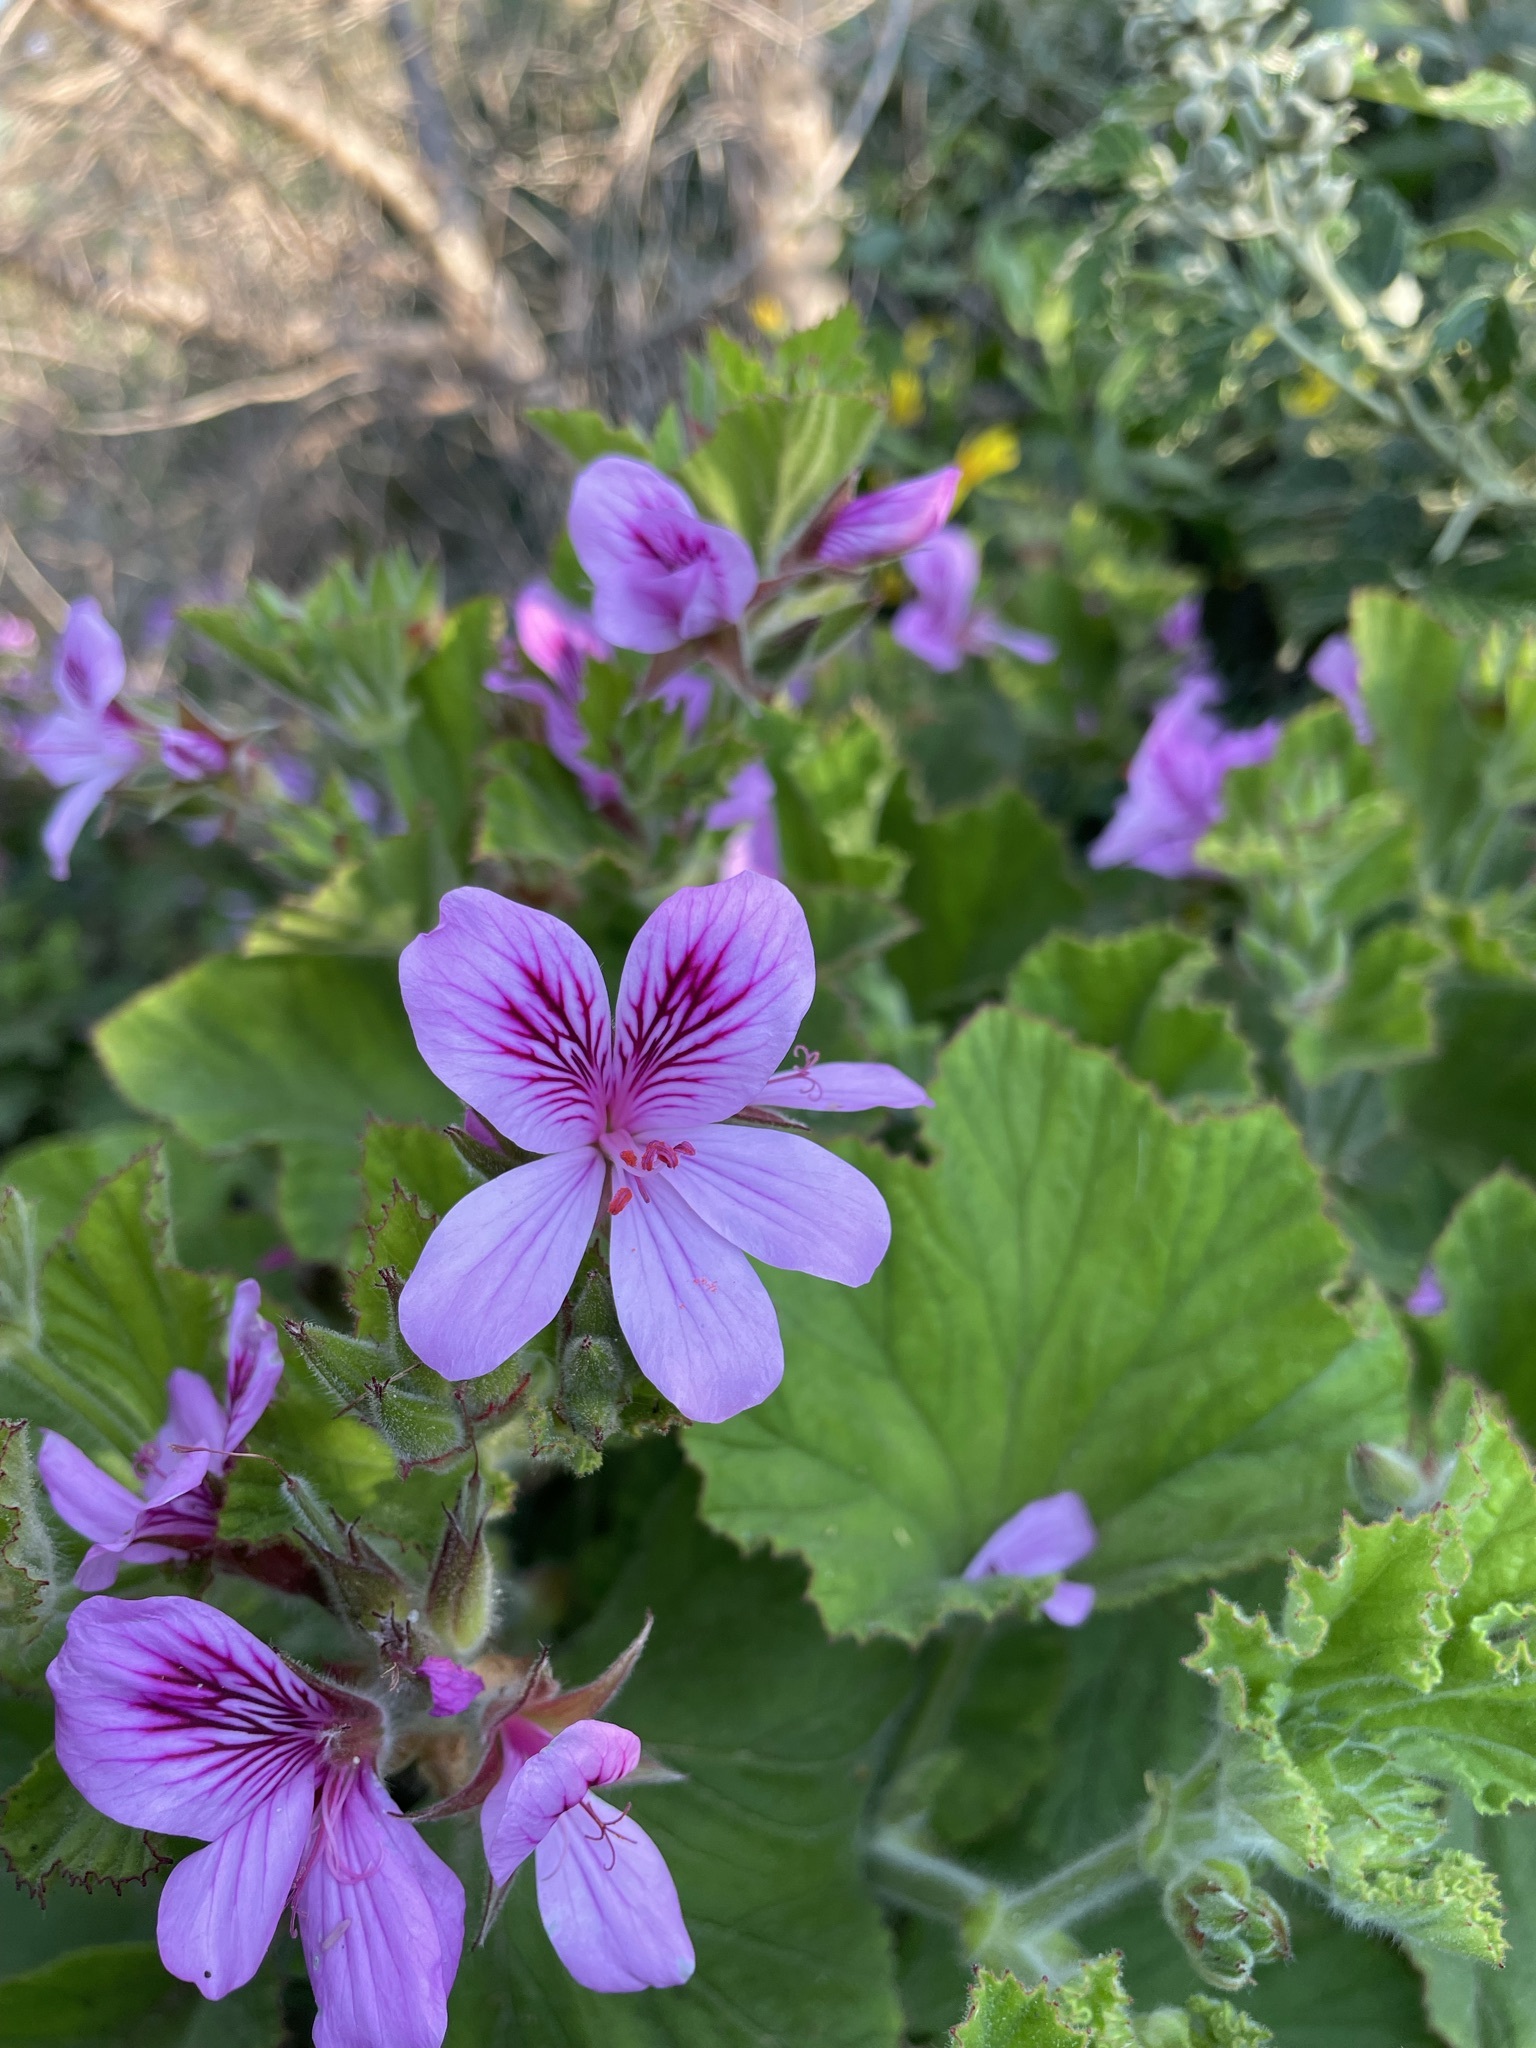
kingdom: Plantae
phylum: Tracheophyta
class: Magnoliopsida
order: Geraniales
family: Geraniaceae
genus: Pelargonium
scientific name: Pelargonium cucullatum
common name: Tree pelargonium
